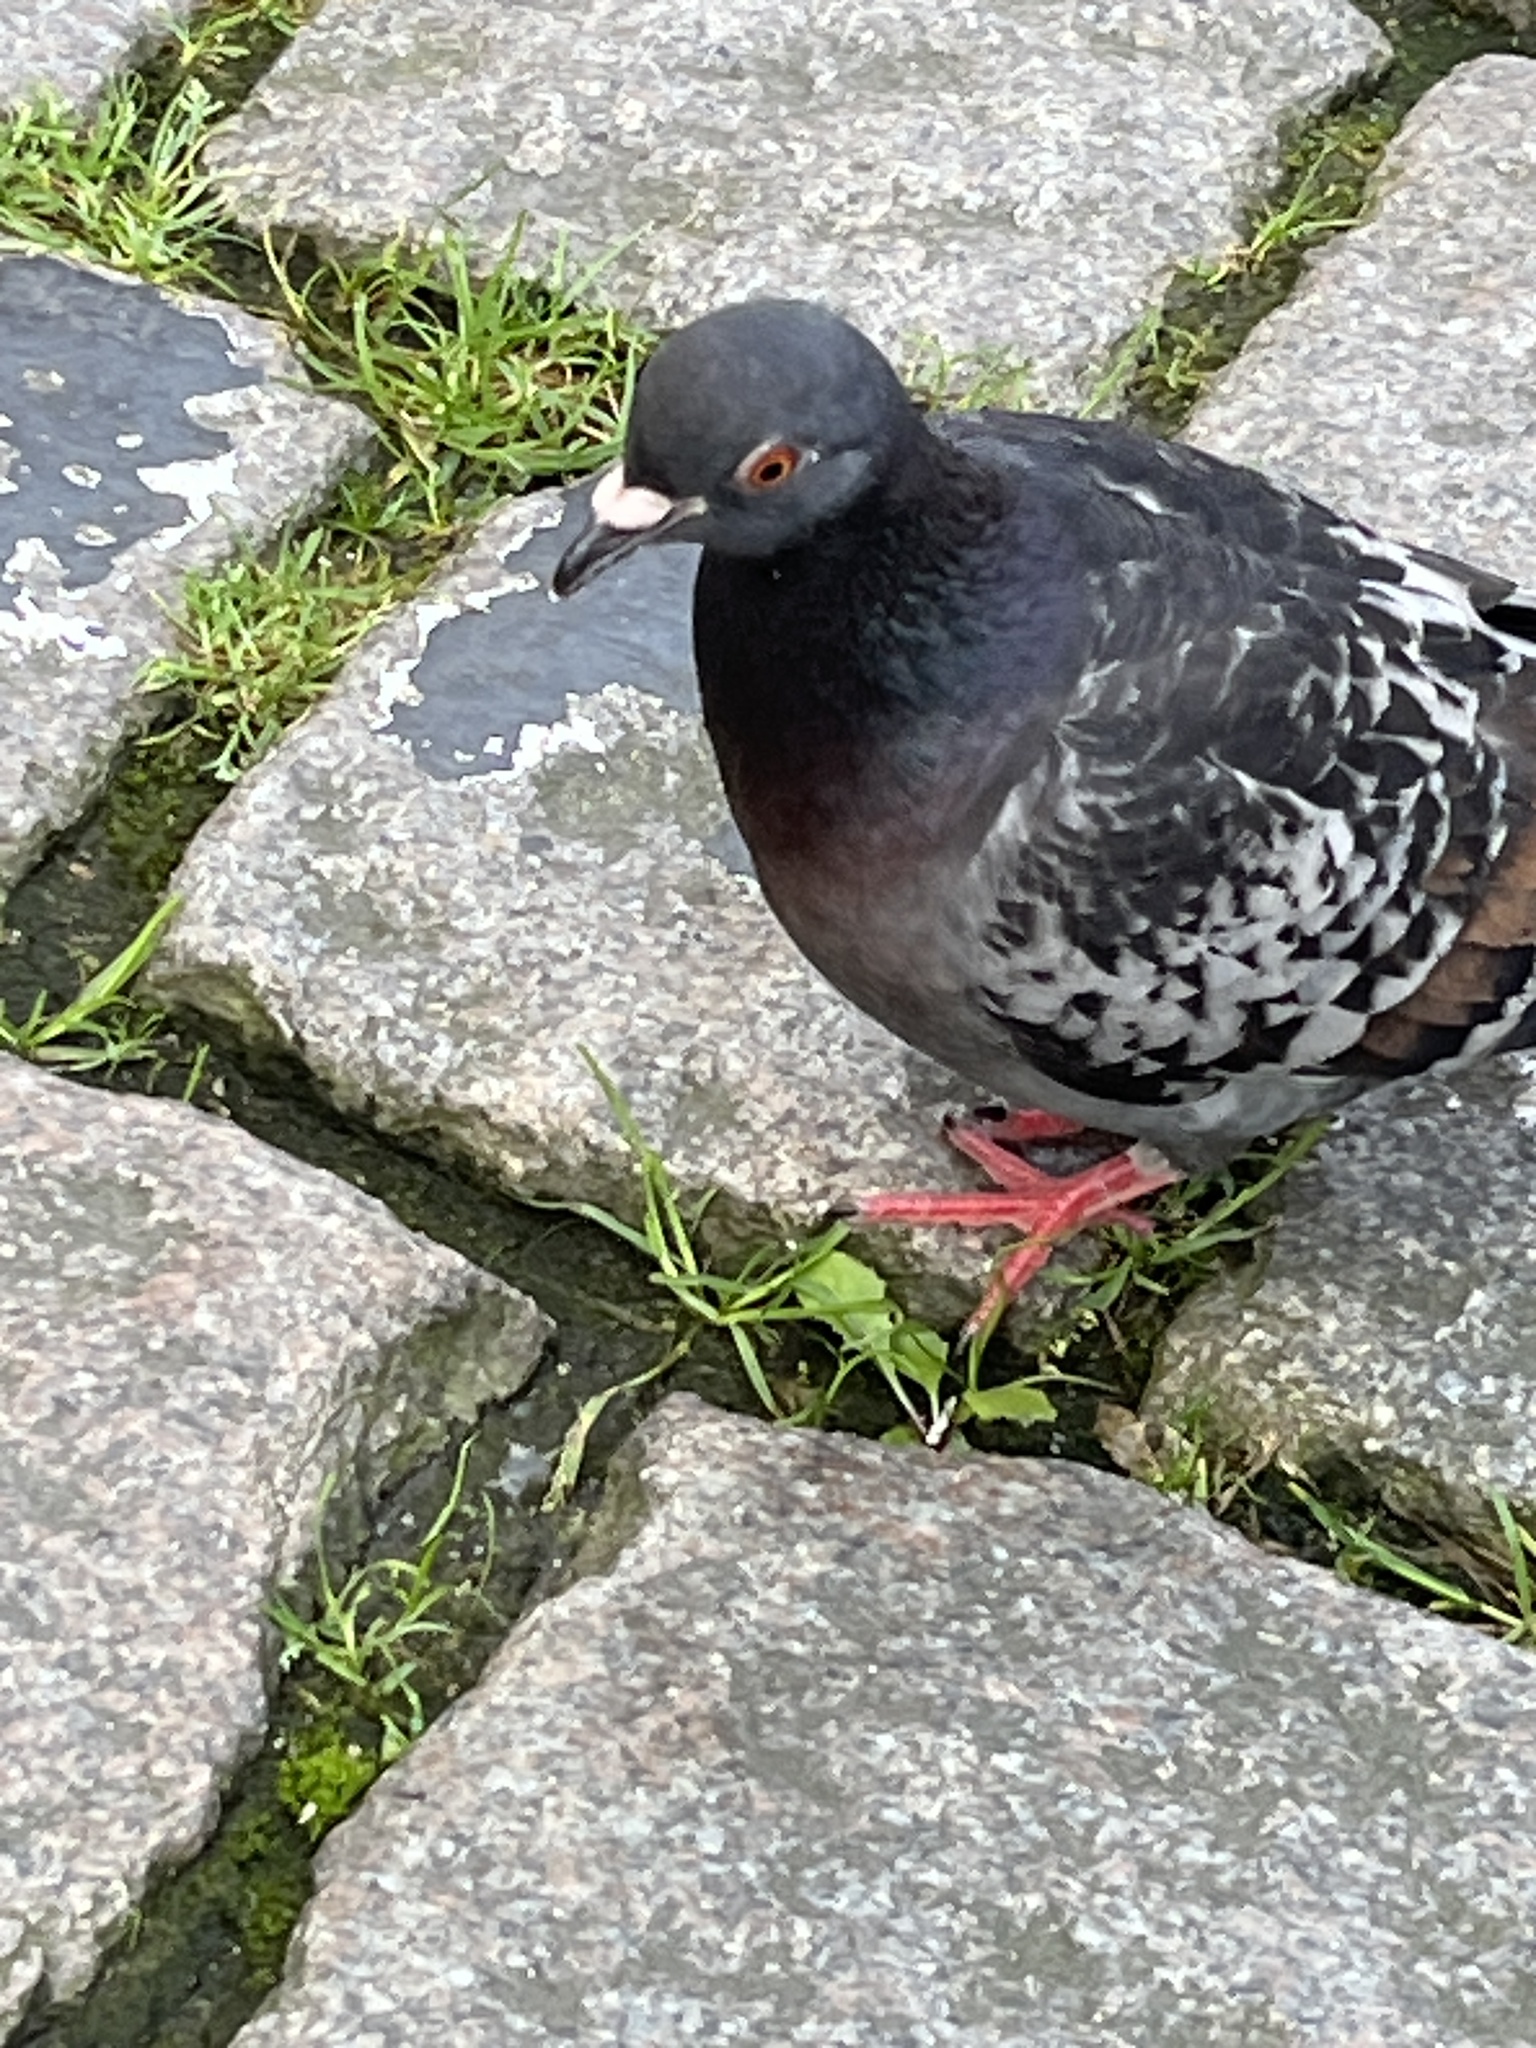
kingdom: Animalia
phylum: Chordata
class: Aves
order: Columbiformes
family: Columbidae
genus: Columba
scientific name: Columba livia
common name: Rock pigeon
